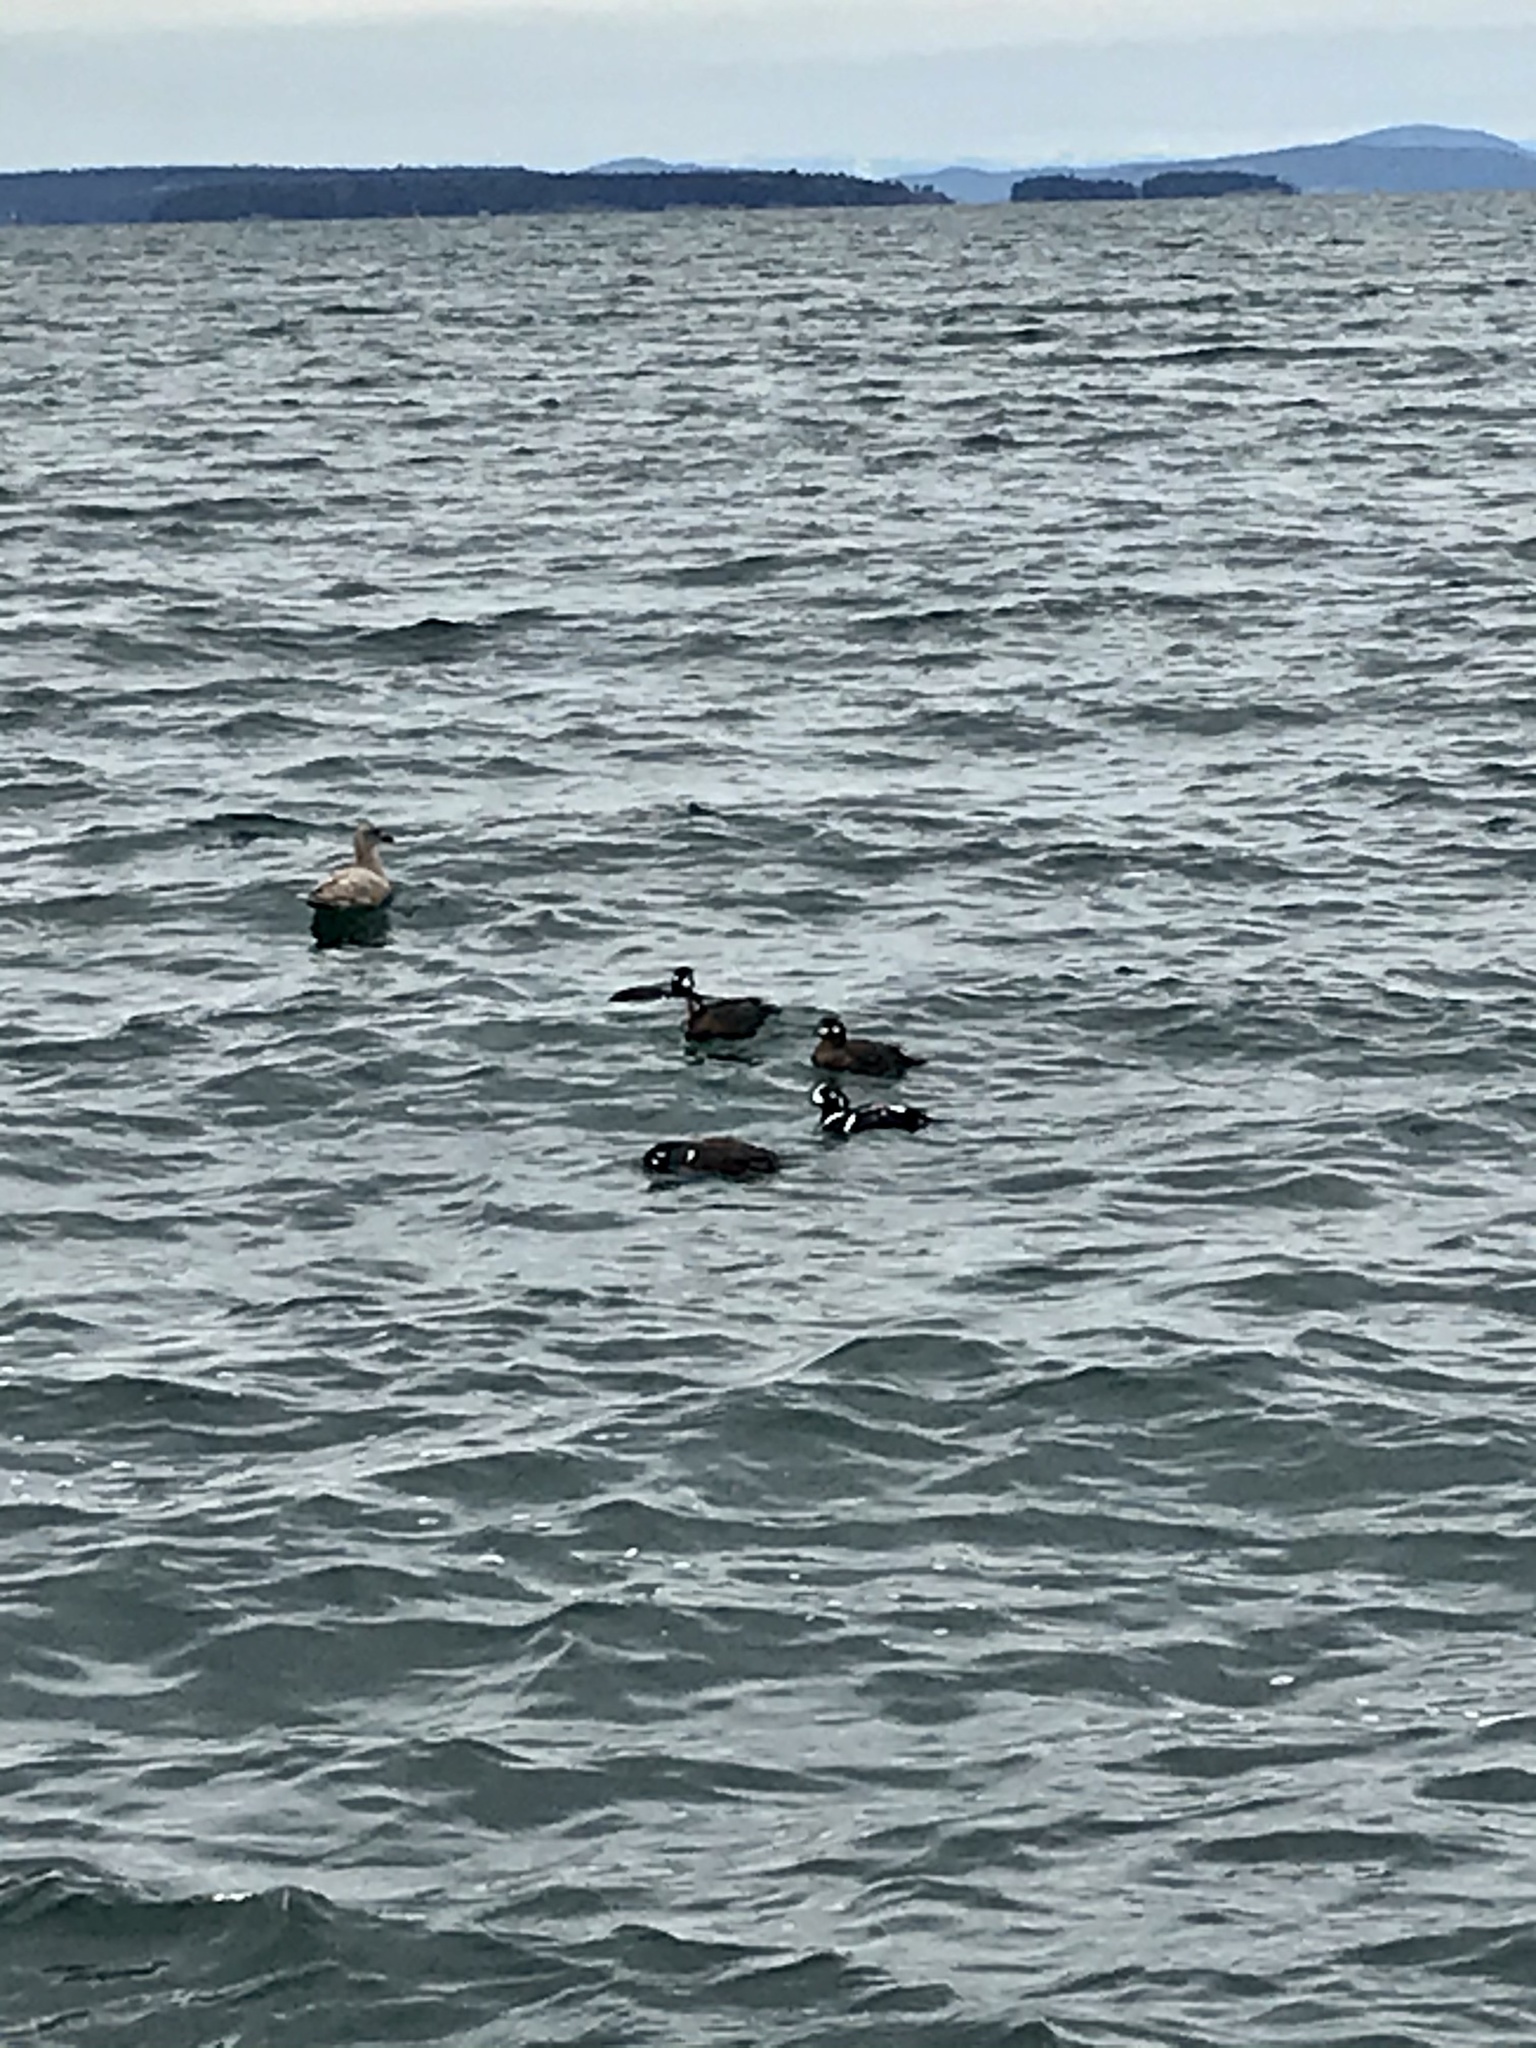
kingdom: Animalia
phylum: Chordata
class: Aves
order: Anseriformes
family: Anatidae
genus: Histrionicus
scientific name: Histrionicus histrionicus
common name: Harlequin duck
